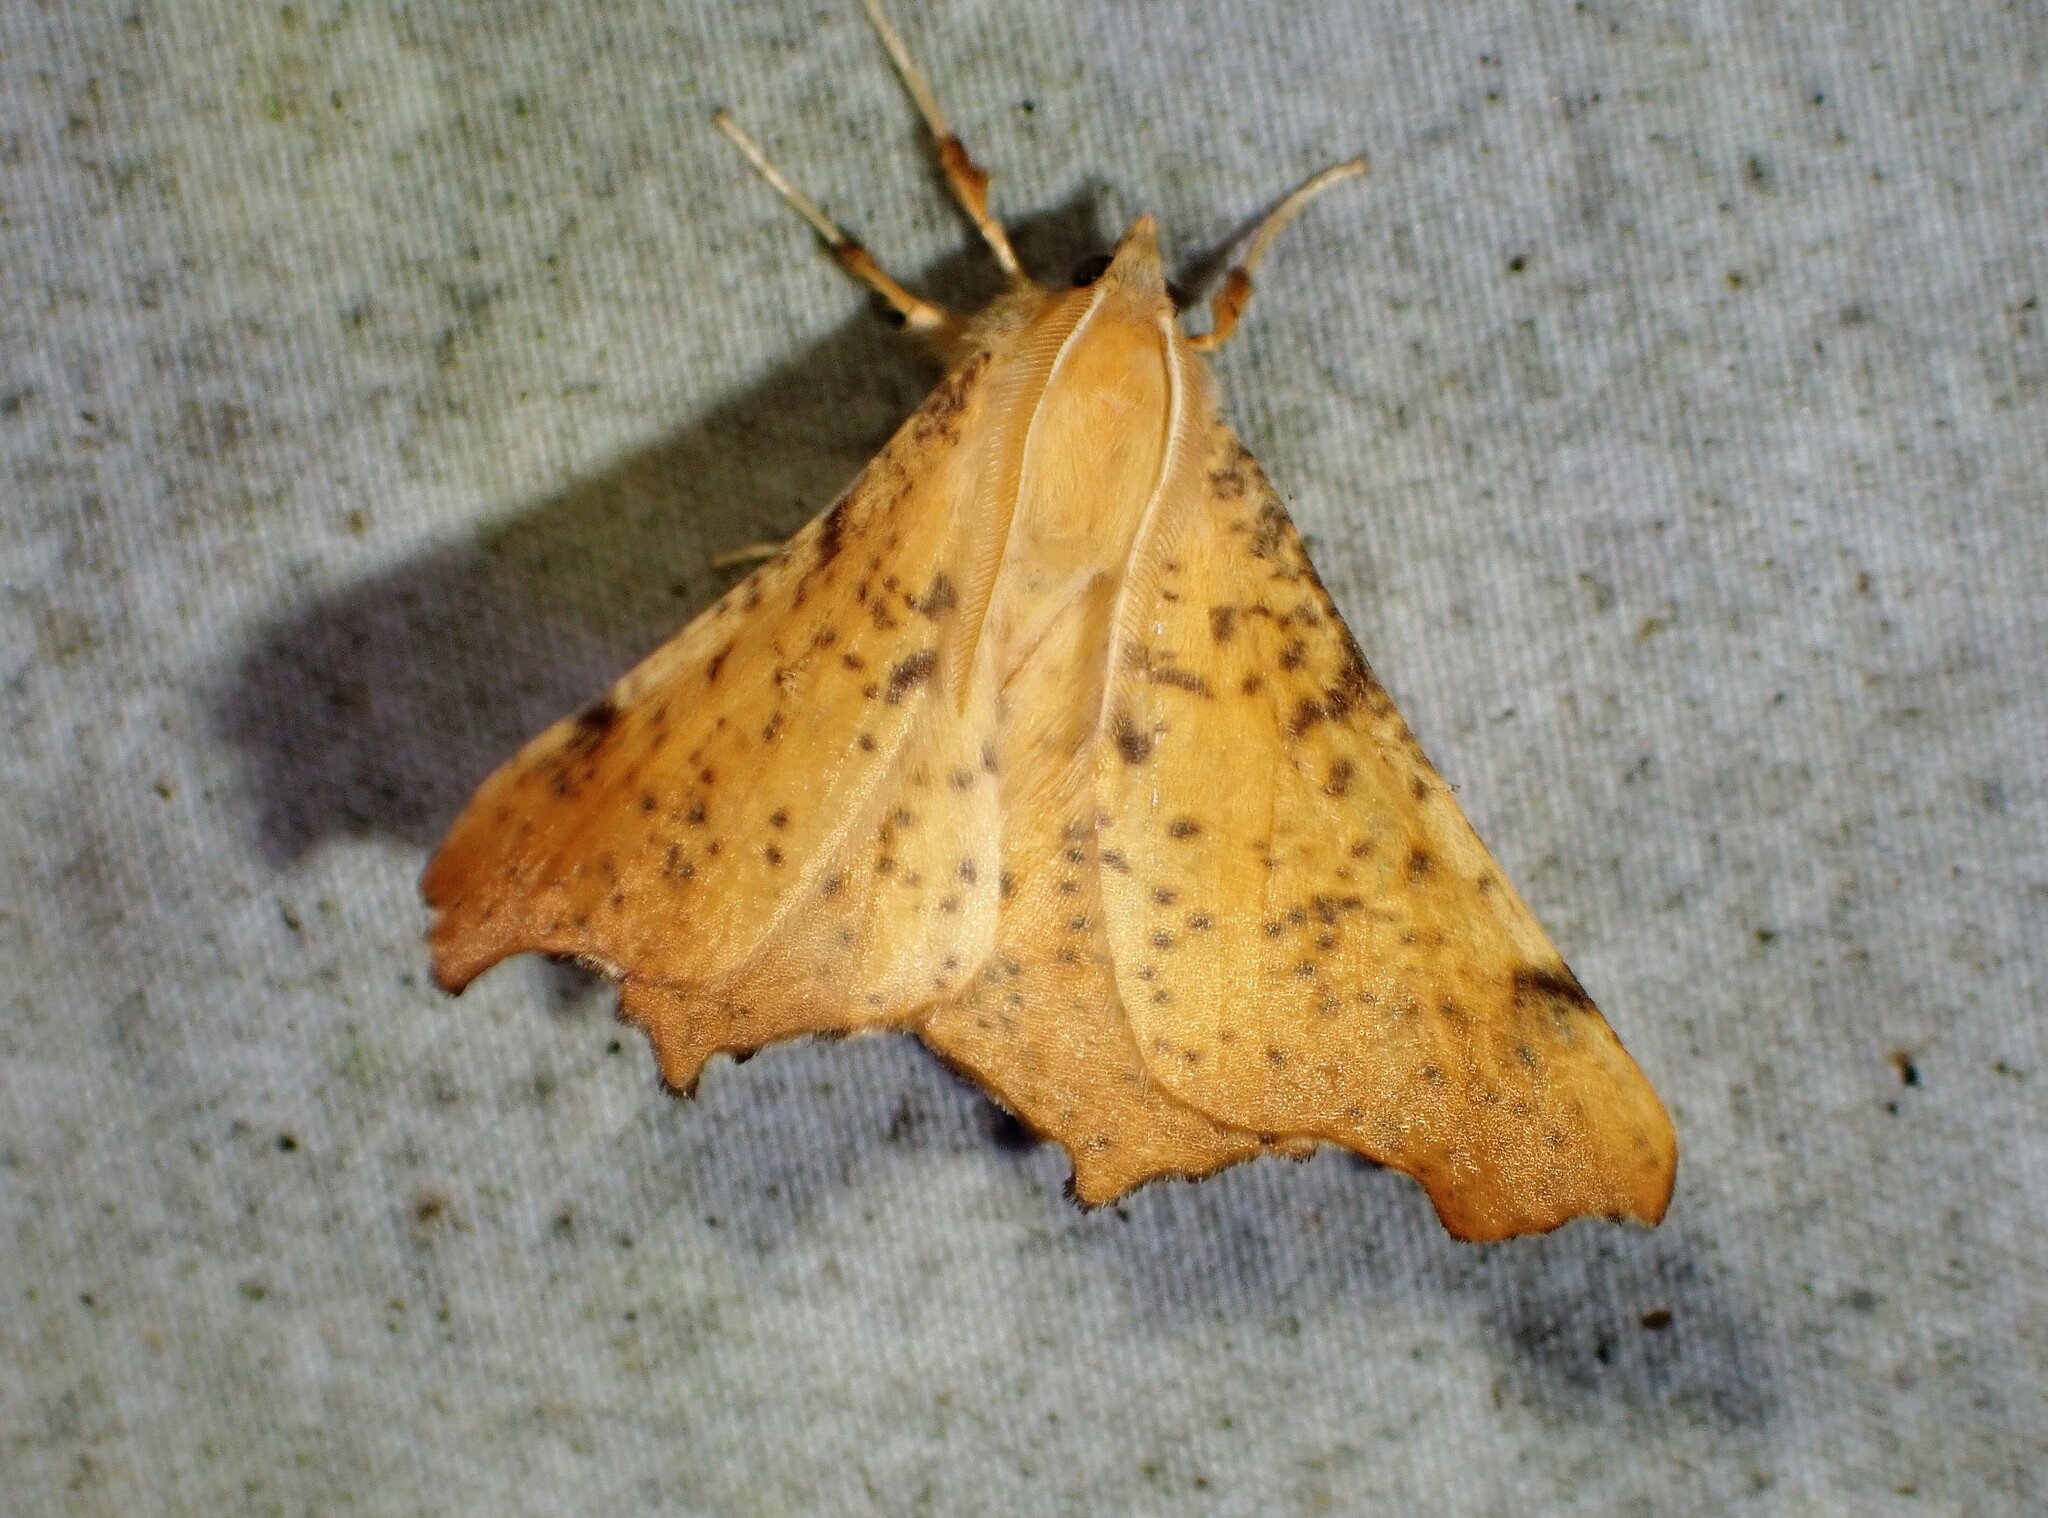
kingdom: Animalia
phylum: Arthropoda
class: Insecta
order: Lepidoptera
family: Geometridae
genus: Ennomos
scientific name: Ennomos magnaria
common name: Maple spanworm
